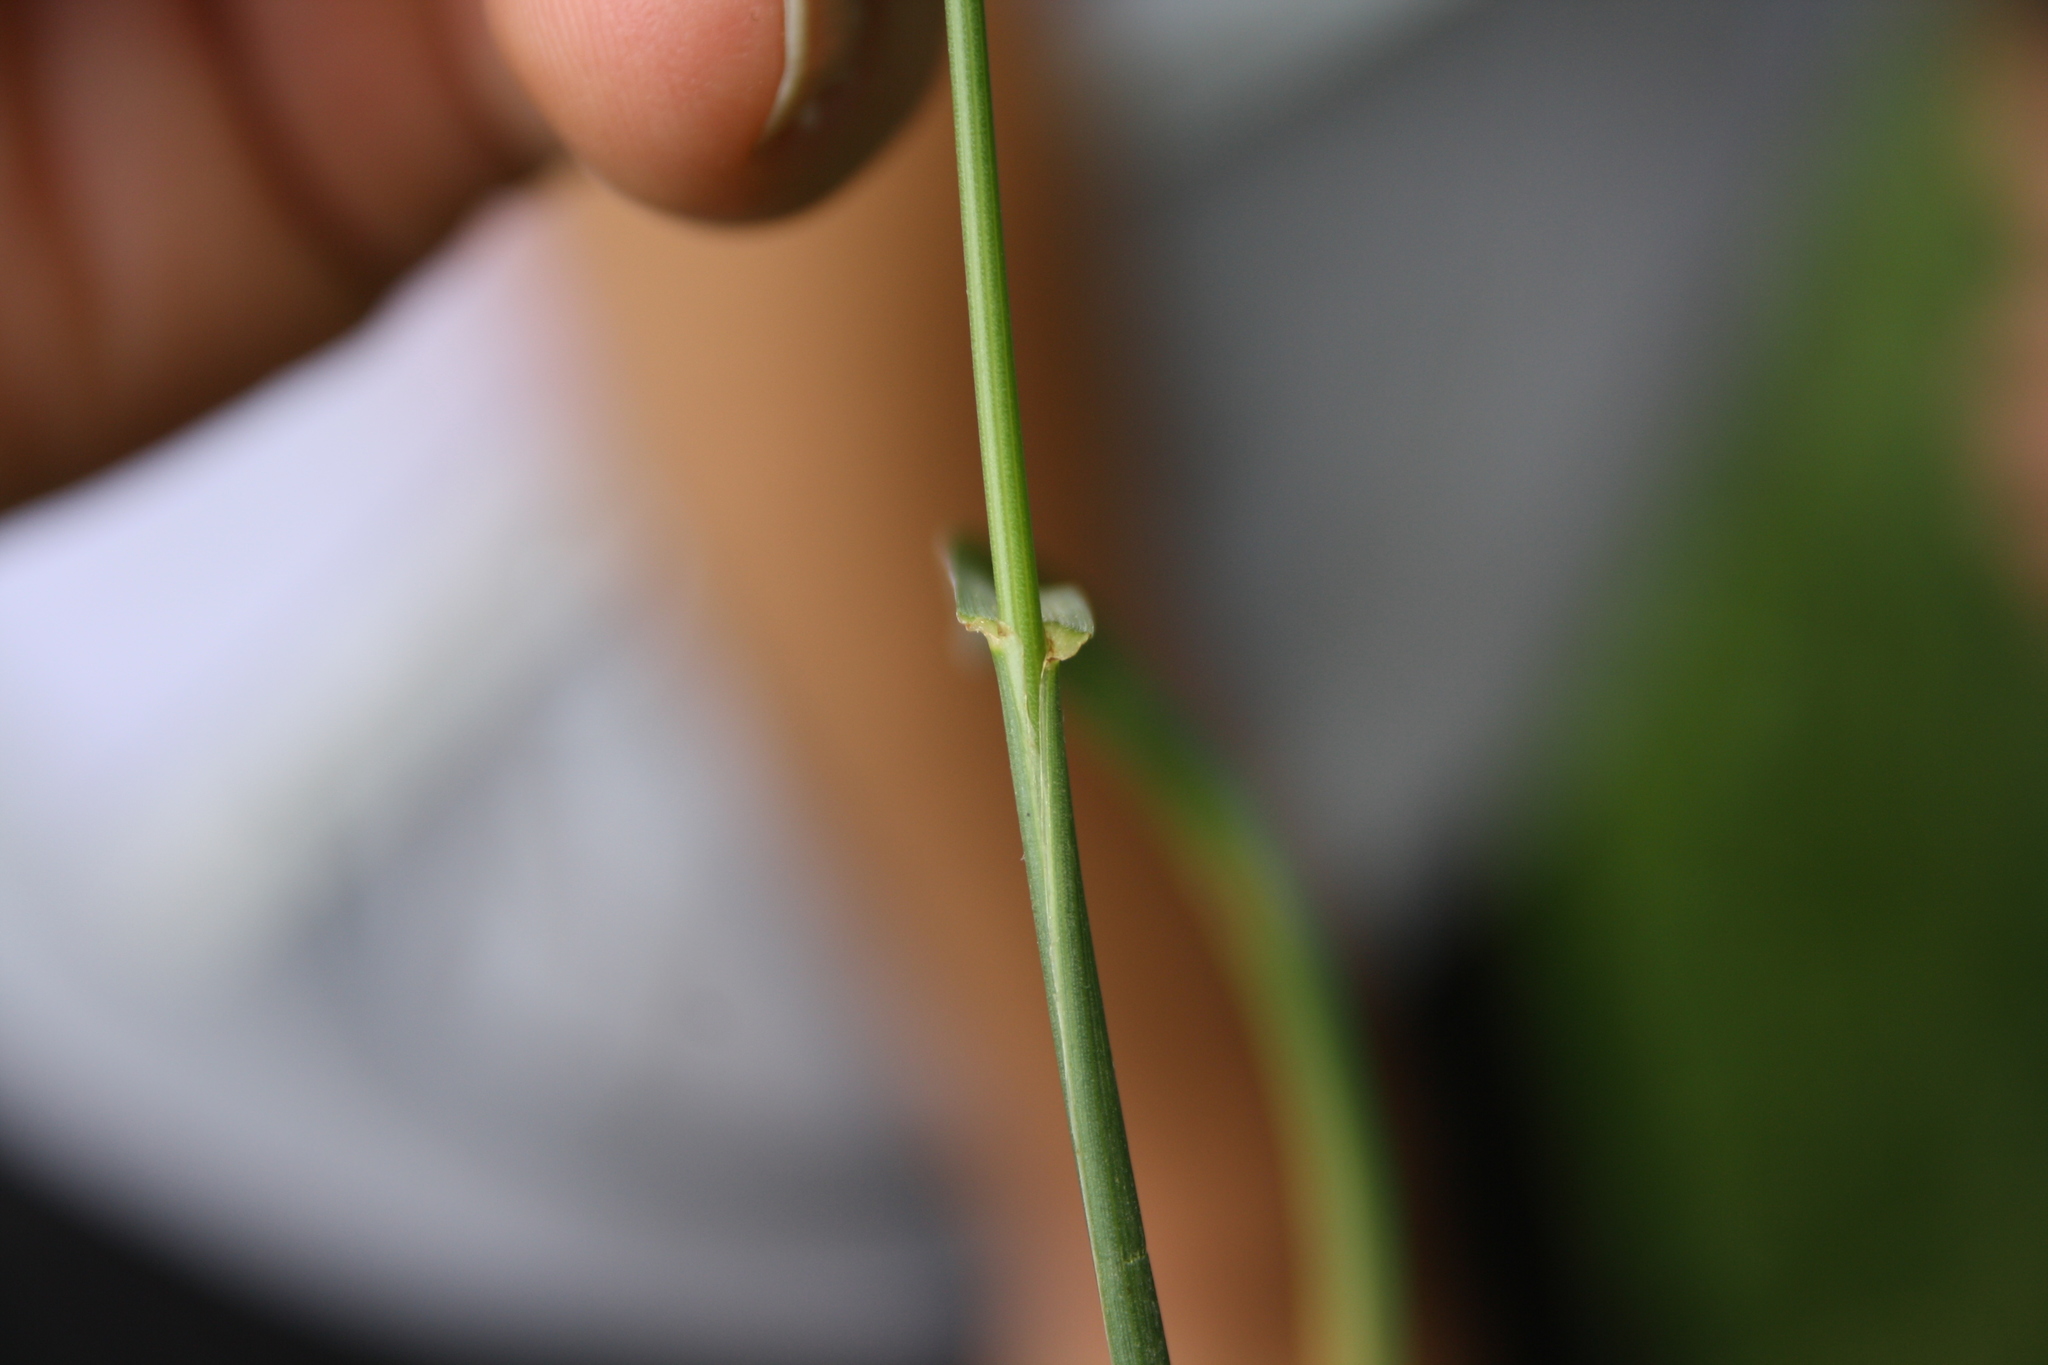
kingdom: Plantae
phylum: Tracheophyta
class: Liliopsida
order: Poales
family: Poaceae
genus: Lolium
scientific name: Lolium perenne
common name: Perennial ryegrass
